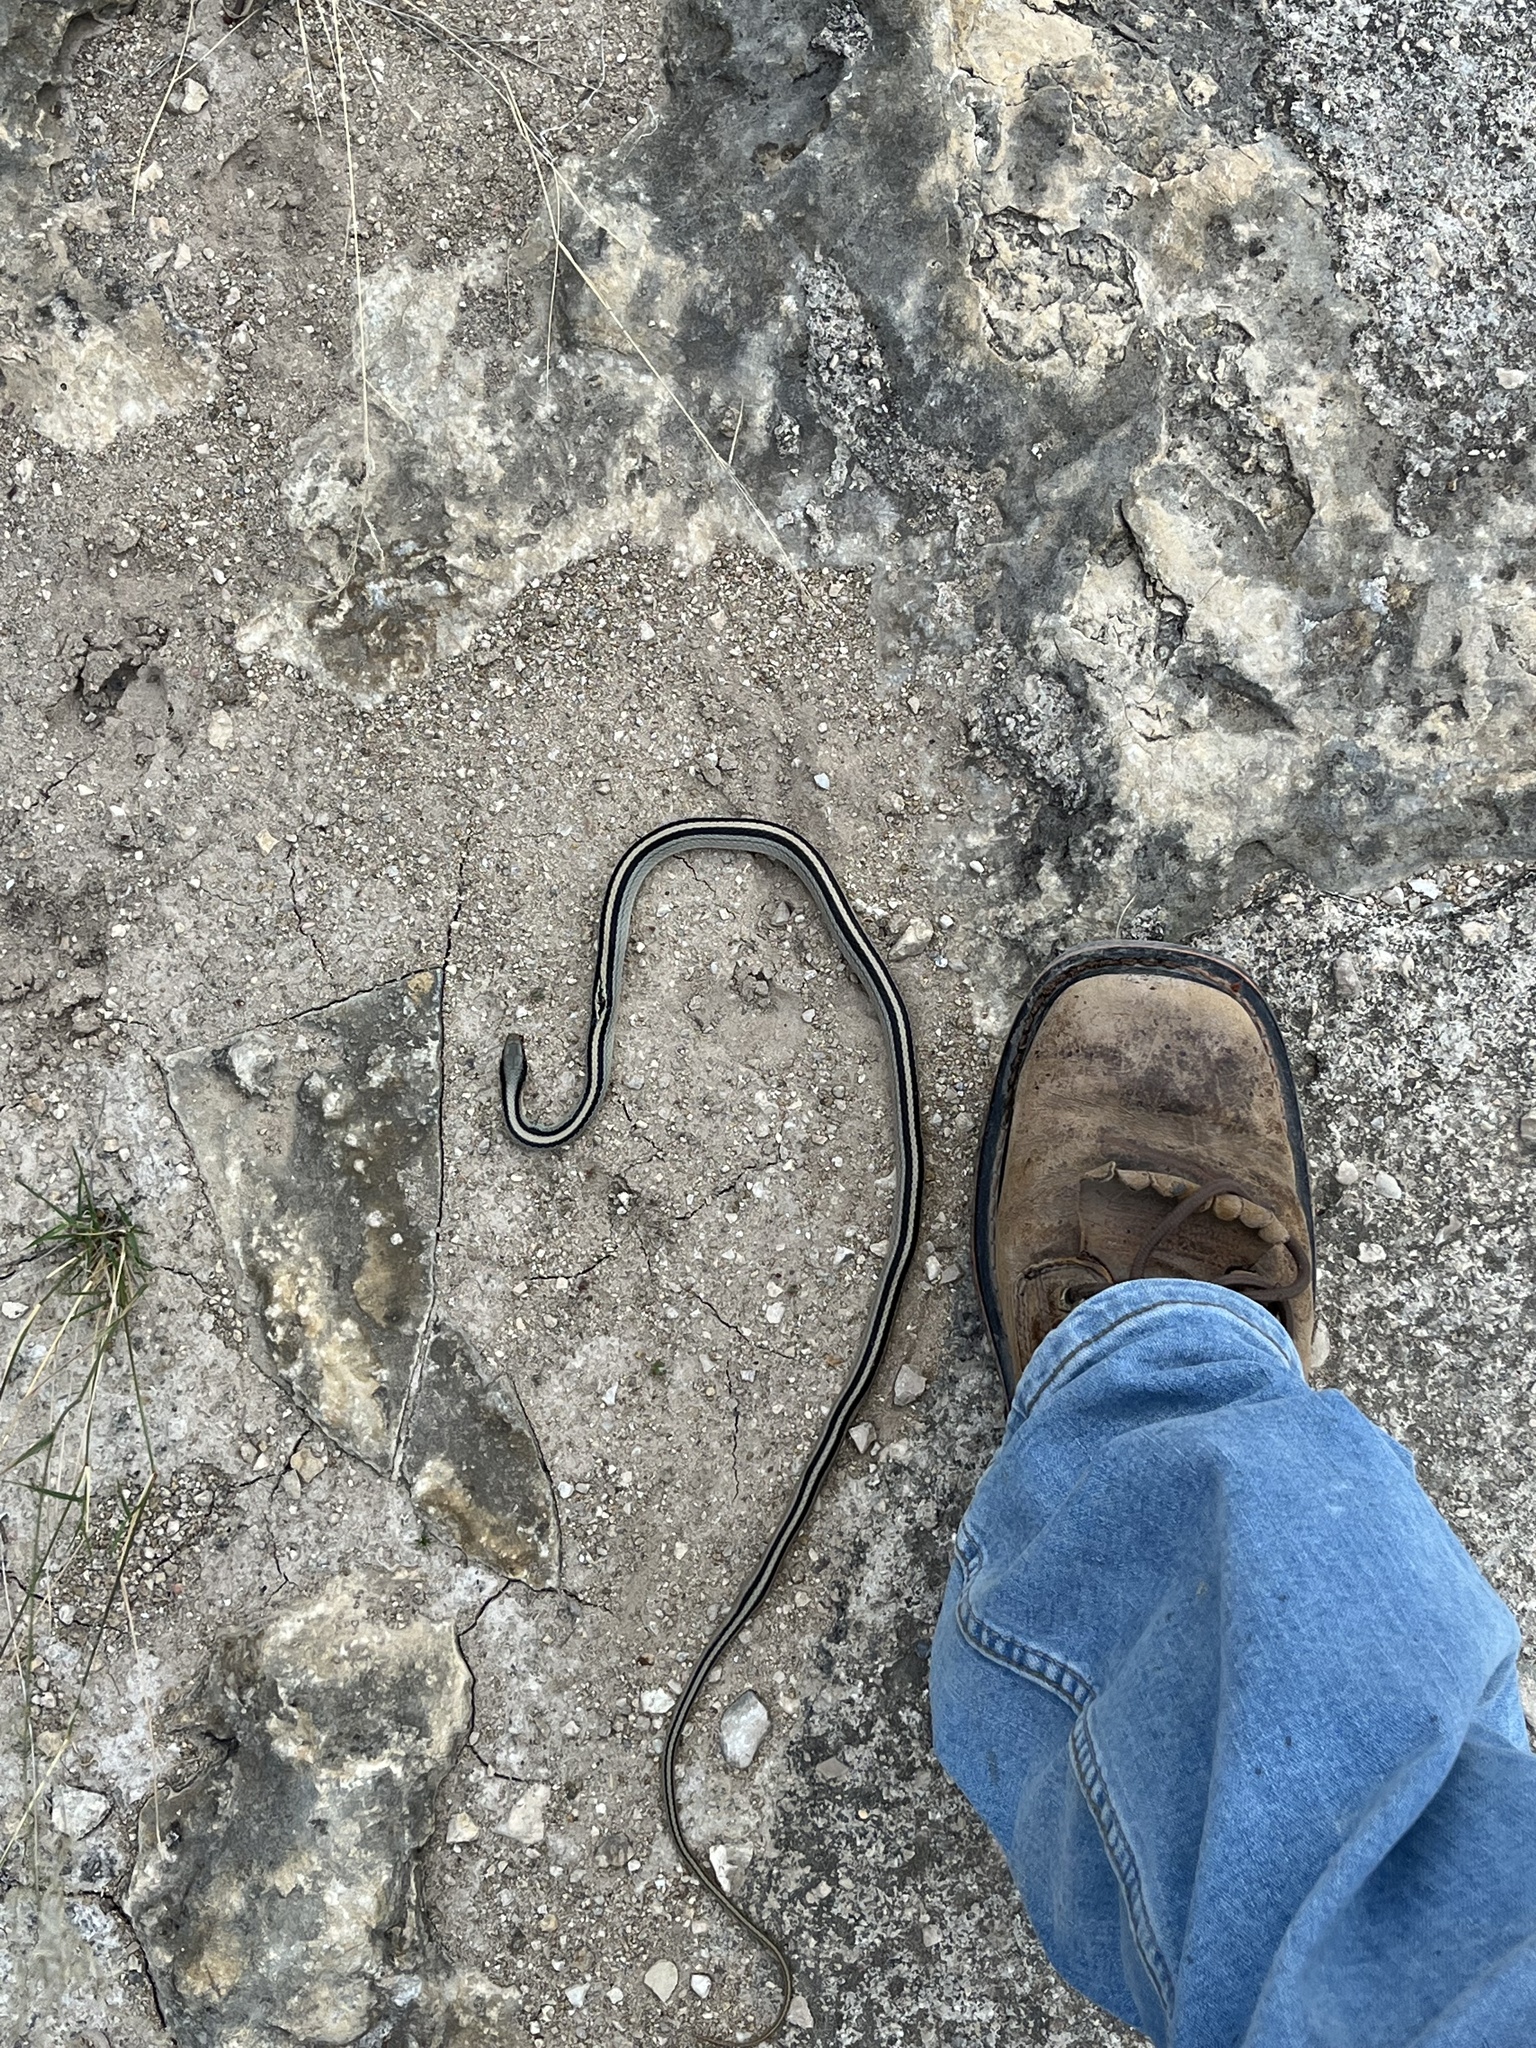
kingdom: Animalia
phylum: Chordata
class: Squamata
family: Colubridae
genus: Salvadora
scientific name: Salvadora lineata
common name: Texas patchnose snake
